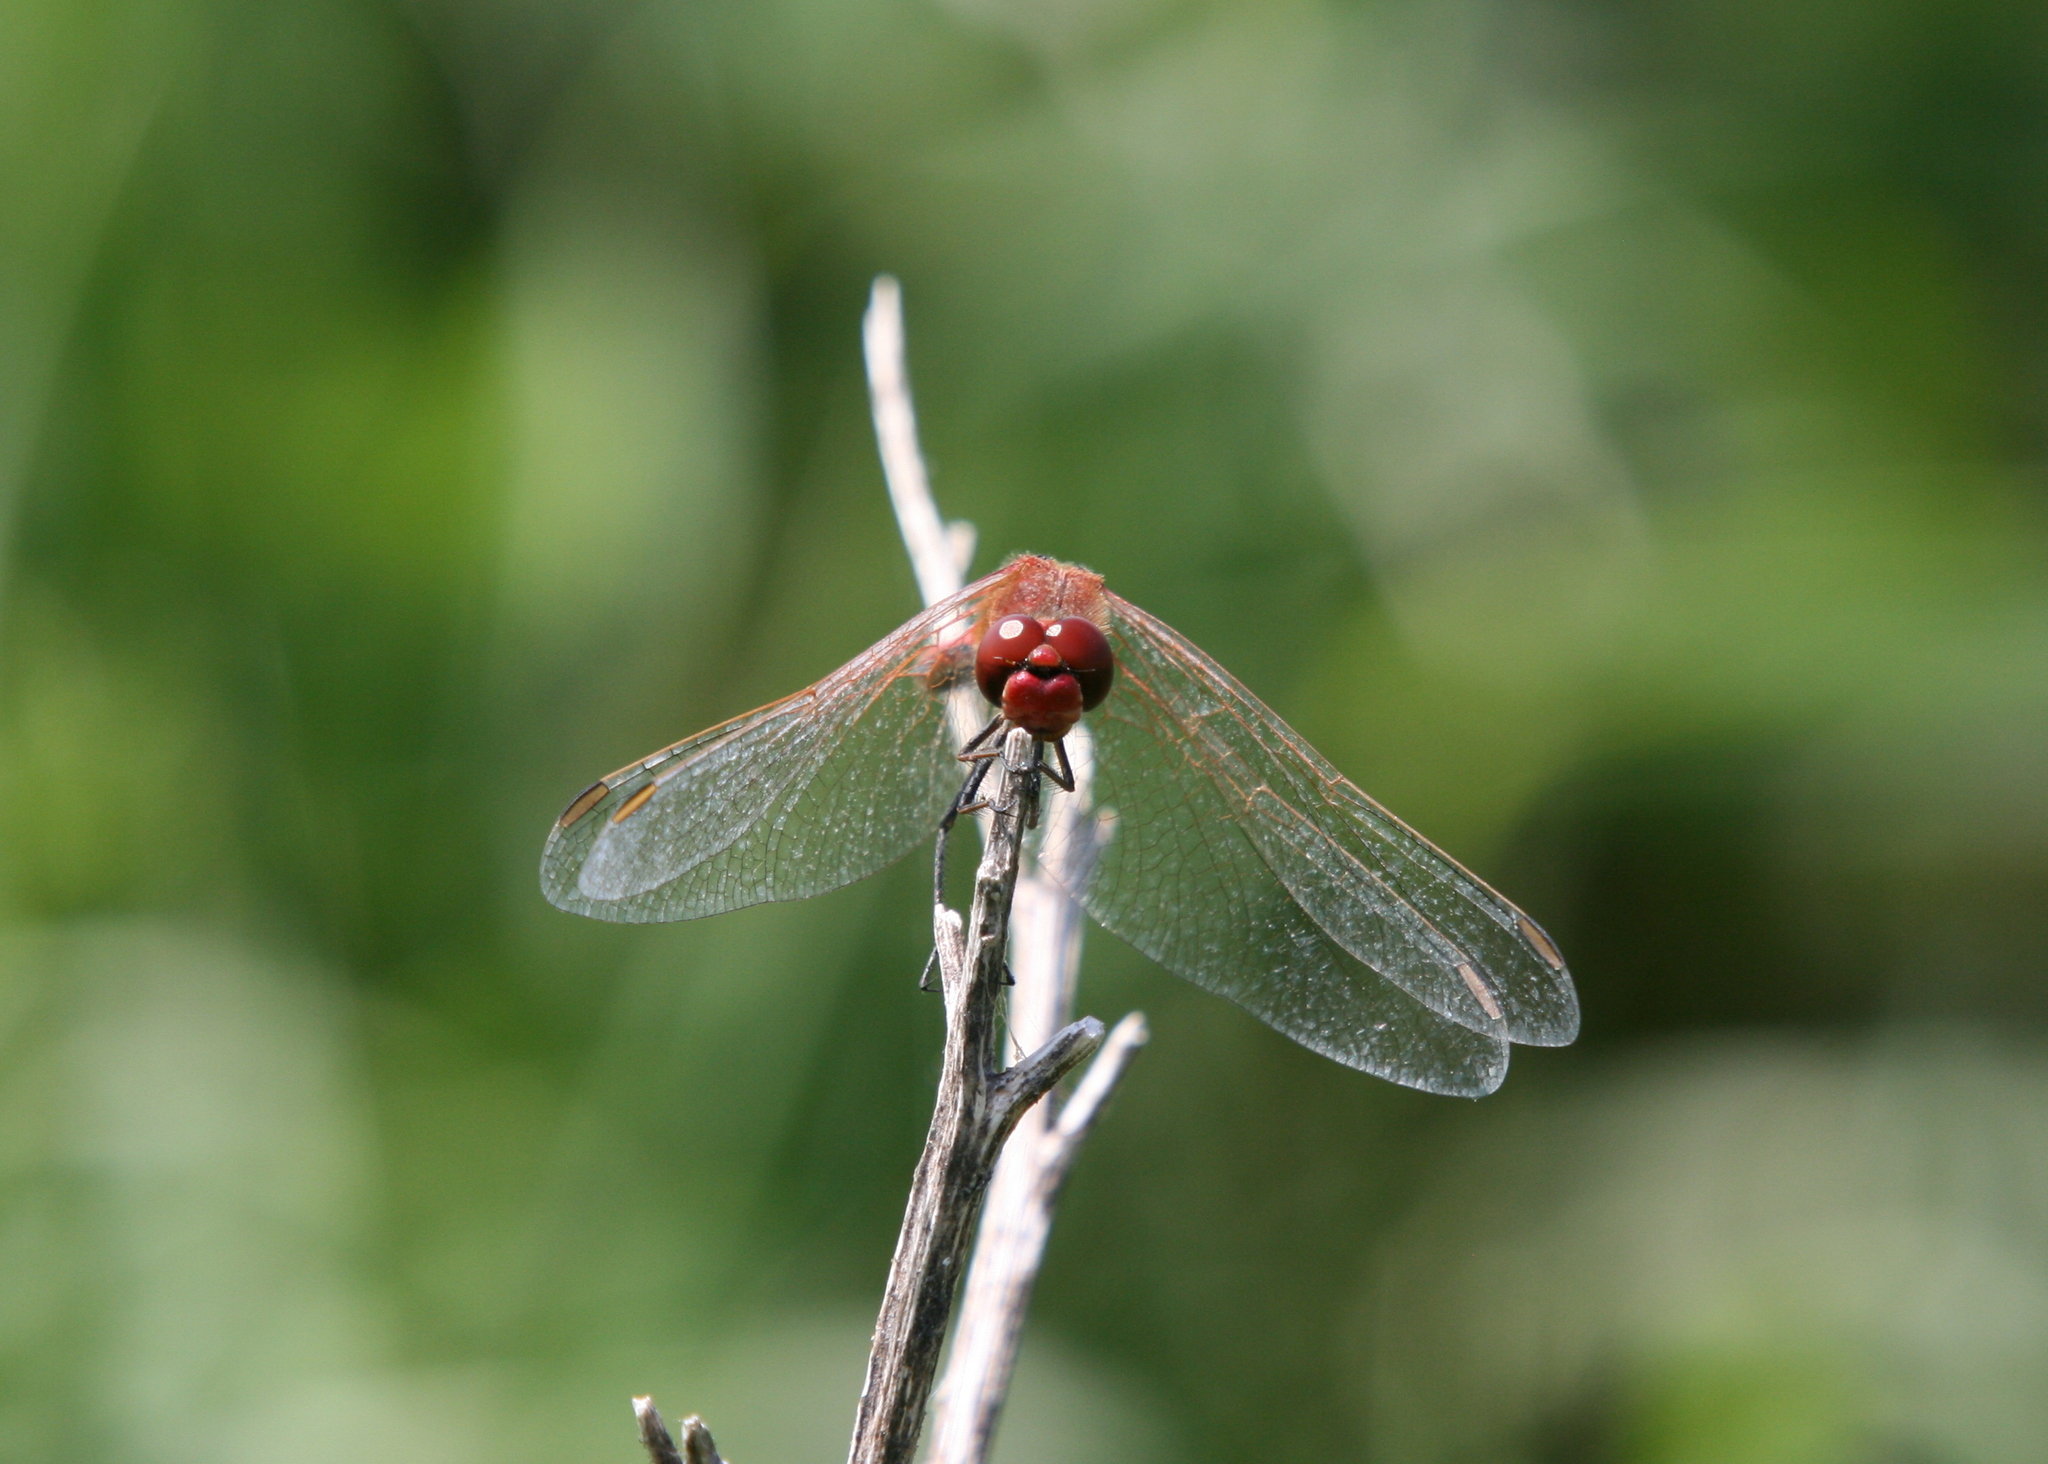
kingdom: Animalia
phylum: Arthropoda
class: Insecta
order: Odonata
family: Libellulidae
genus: Sympetrum
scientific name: Sympetrum fonscolombii
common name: Red-veined darter
